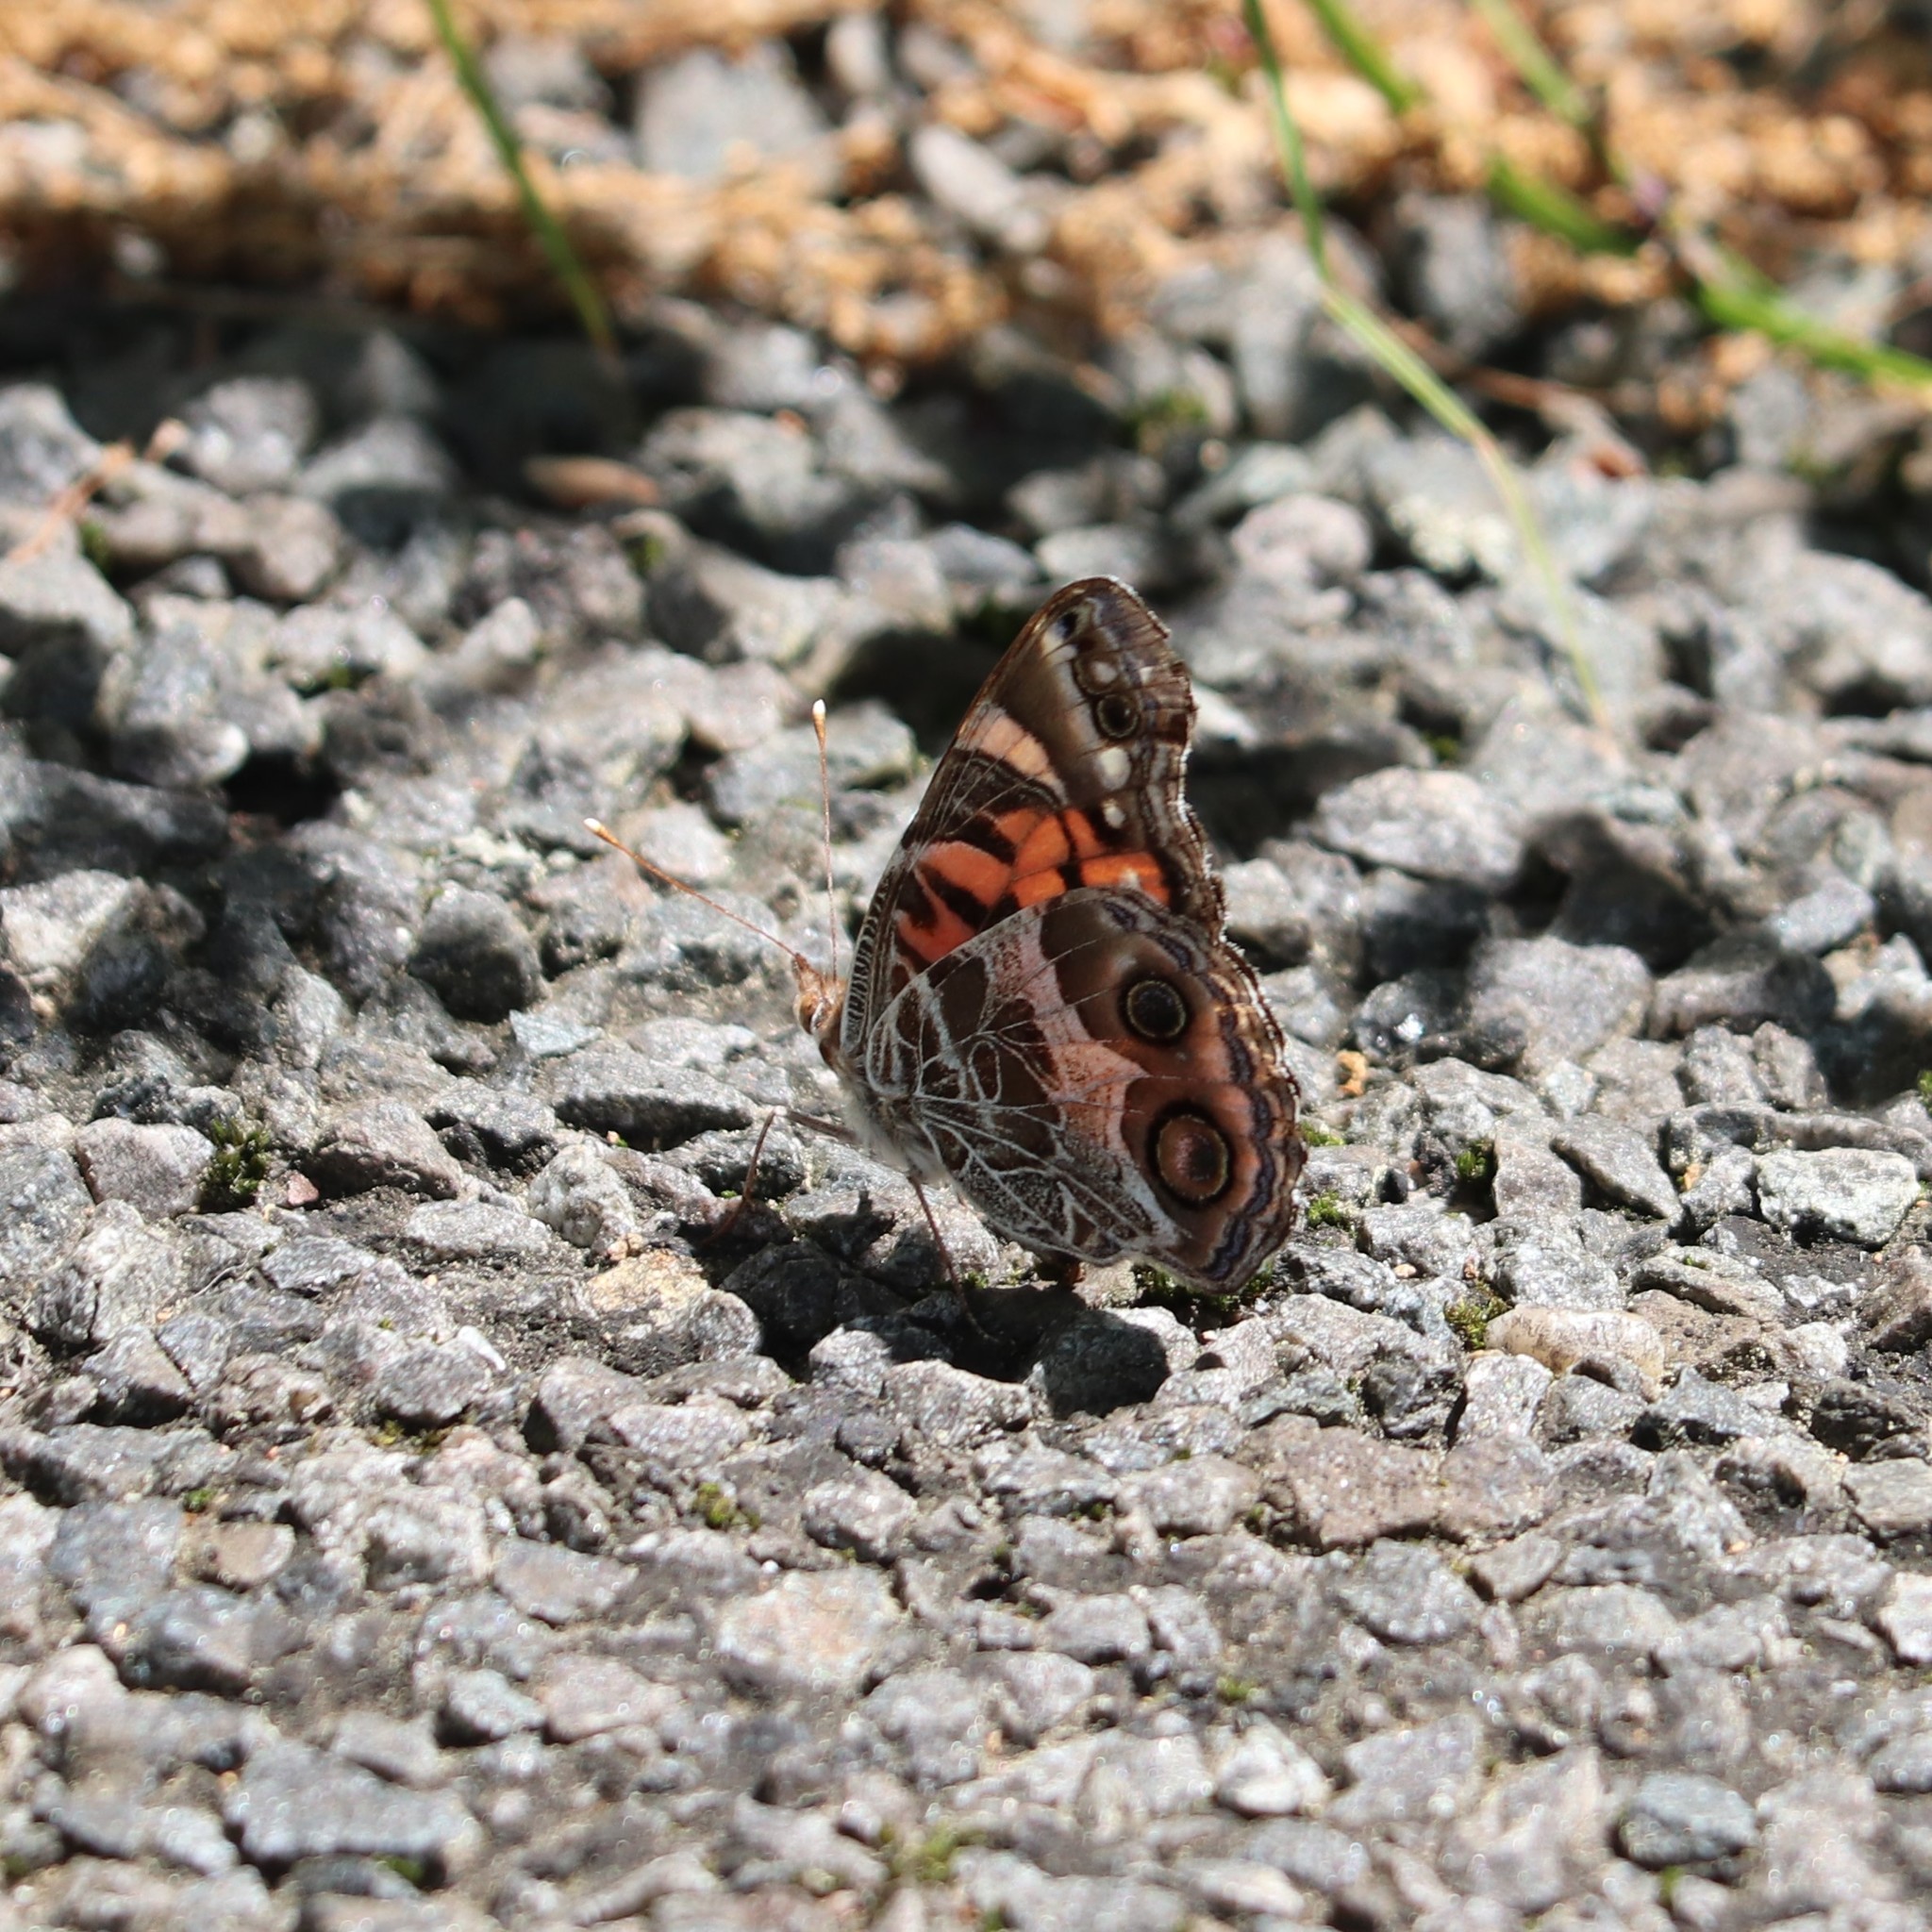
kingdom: Animalia
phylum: Arthropoda
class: Insecta
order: Lepidoptera
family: Nymphalidae
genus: Vanessa
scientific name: Vanessa virginiensis
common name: American lady
